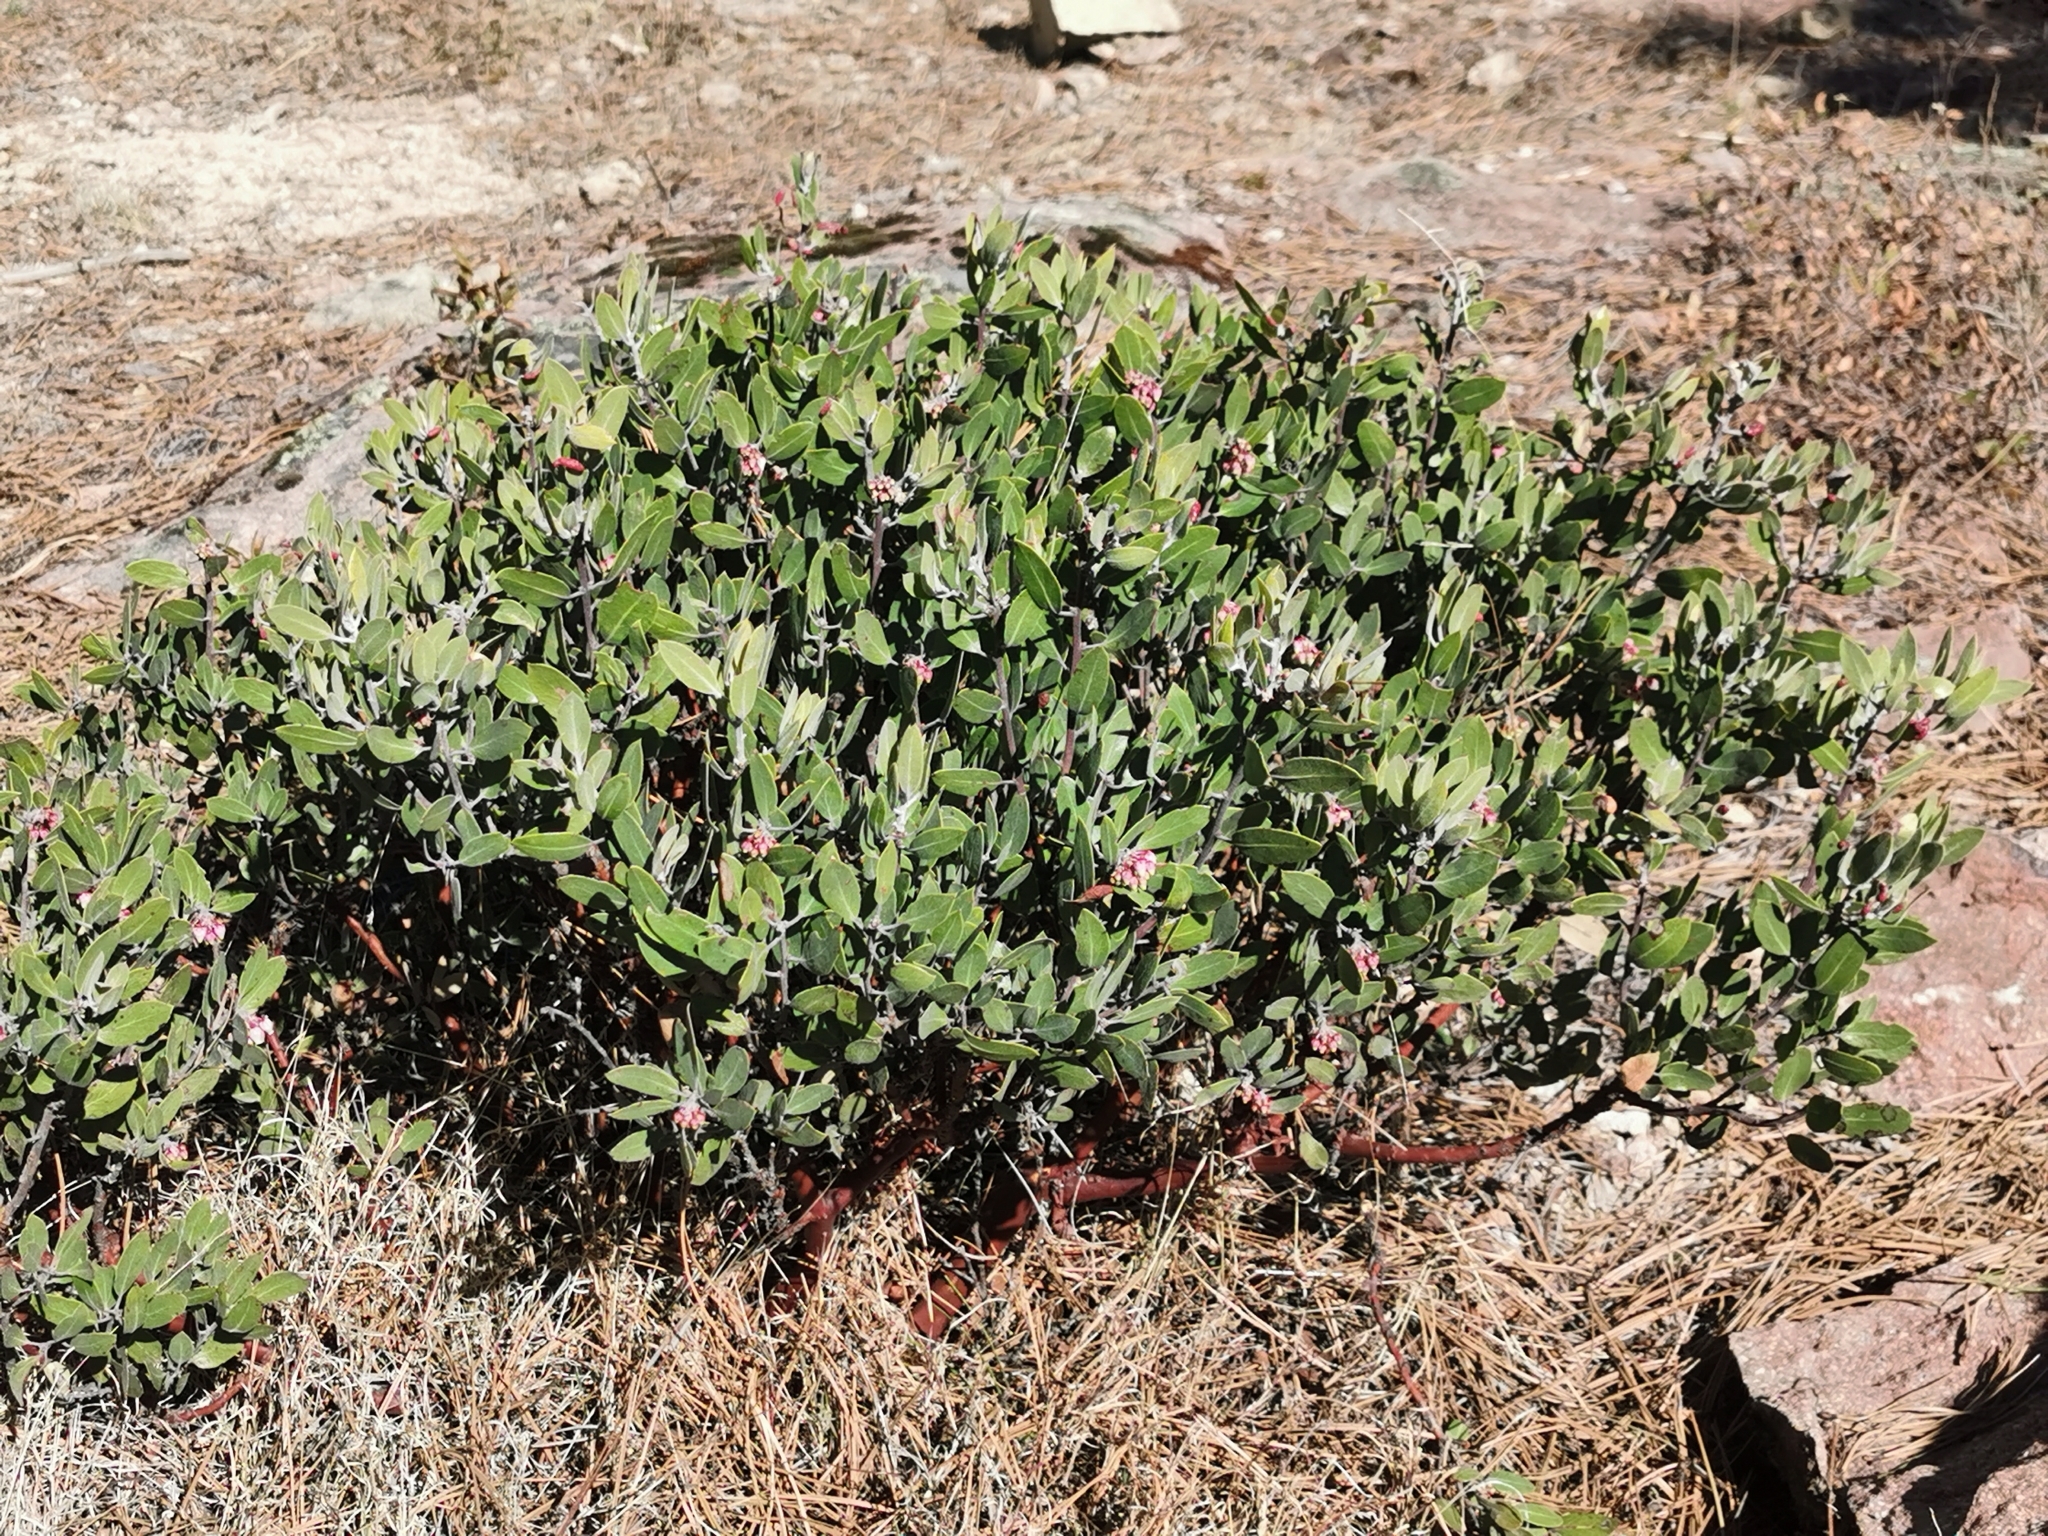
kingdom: Plantae
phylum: Tracheophyta
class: Magnoliopsida
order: Ericales
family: Ericaceae
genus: Arctostaphylos
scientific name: Arctostaphylos pungens
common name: Mexican manzanita
